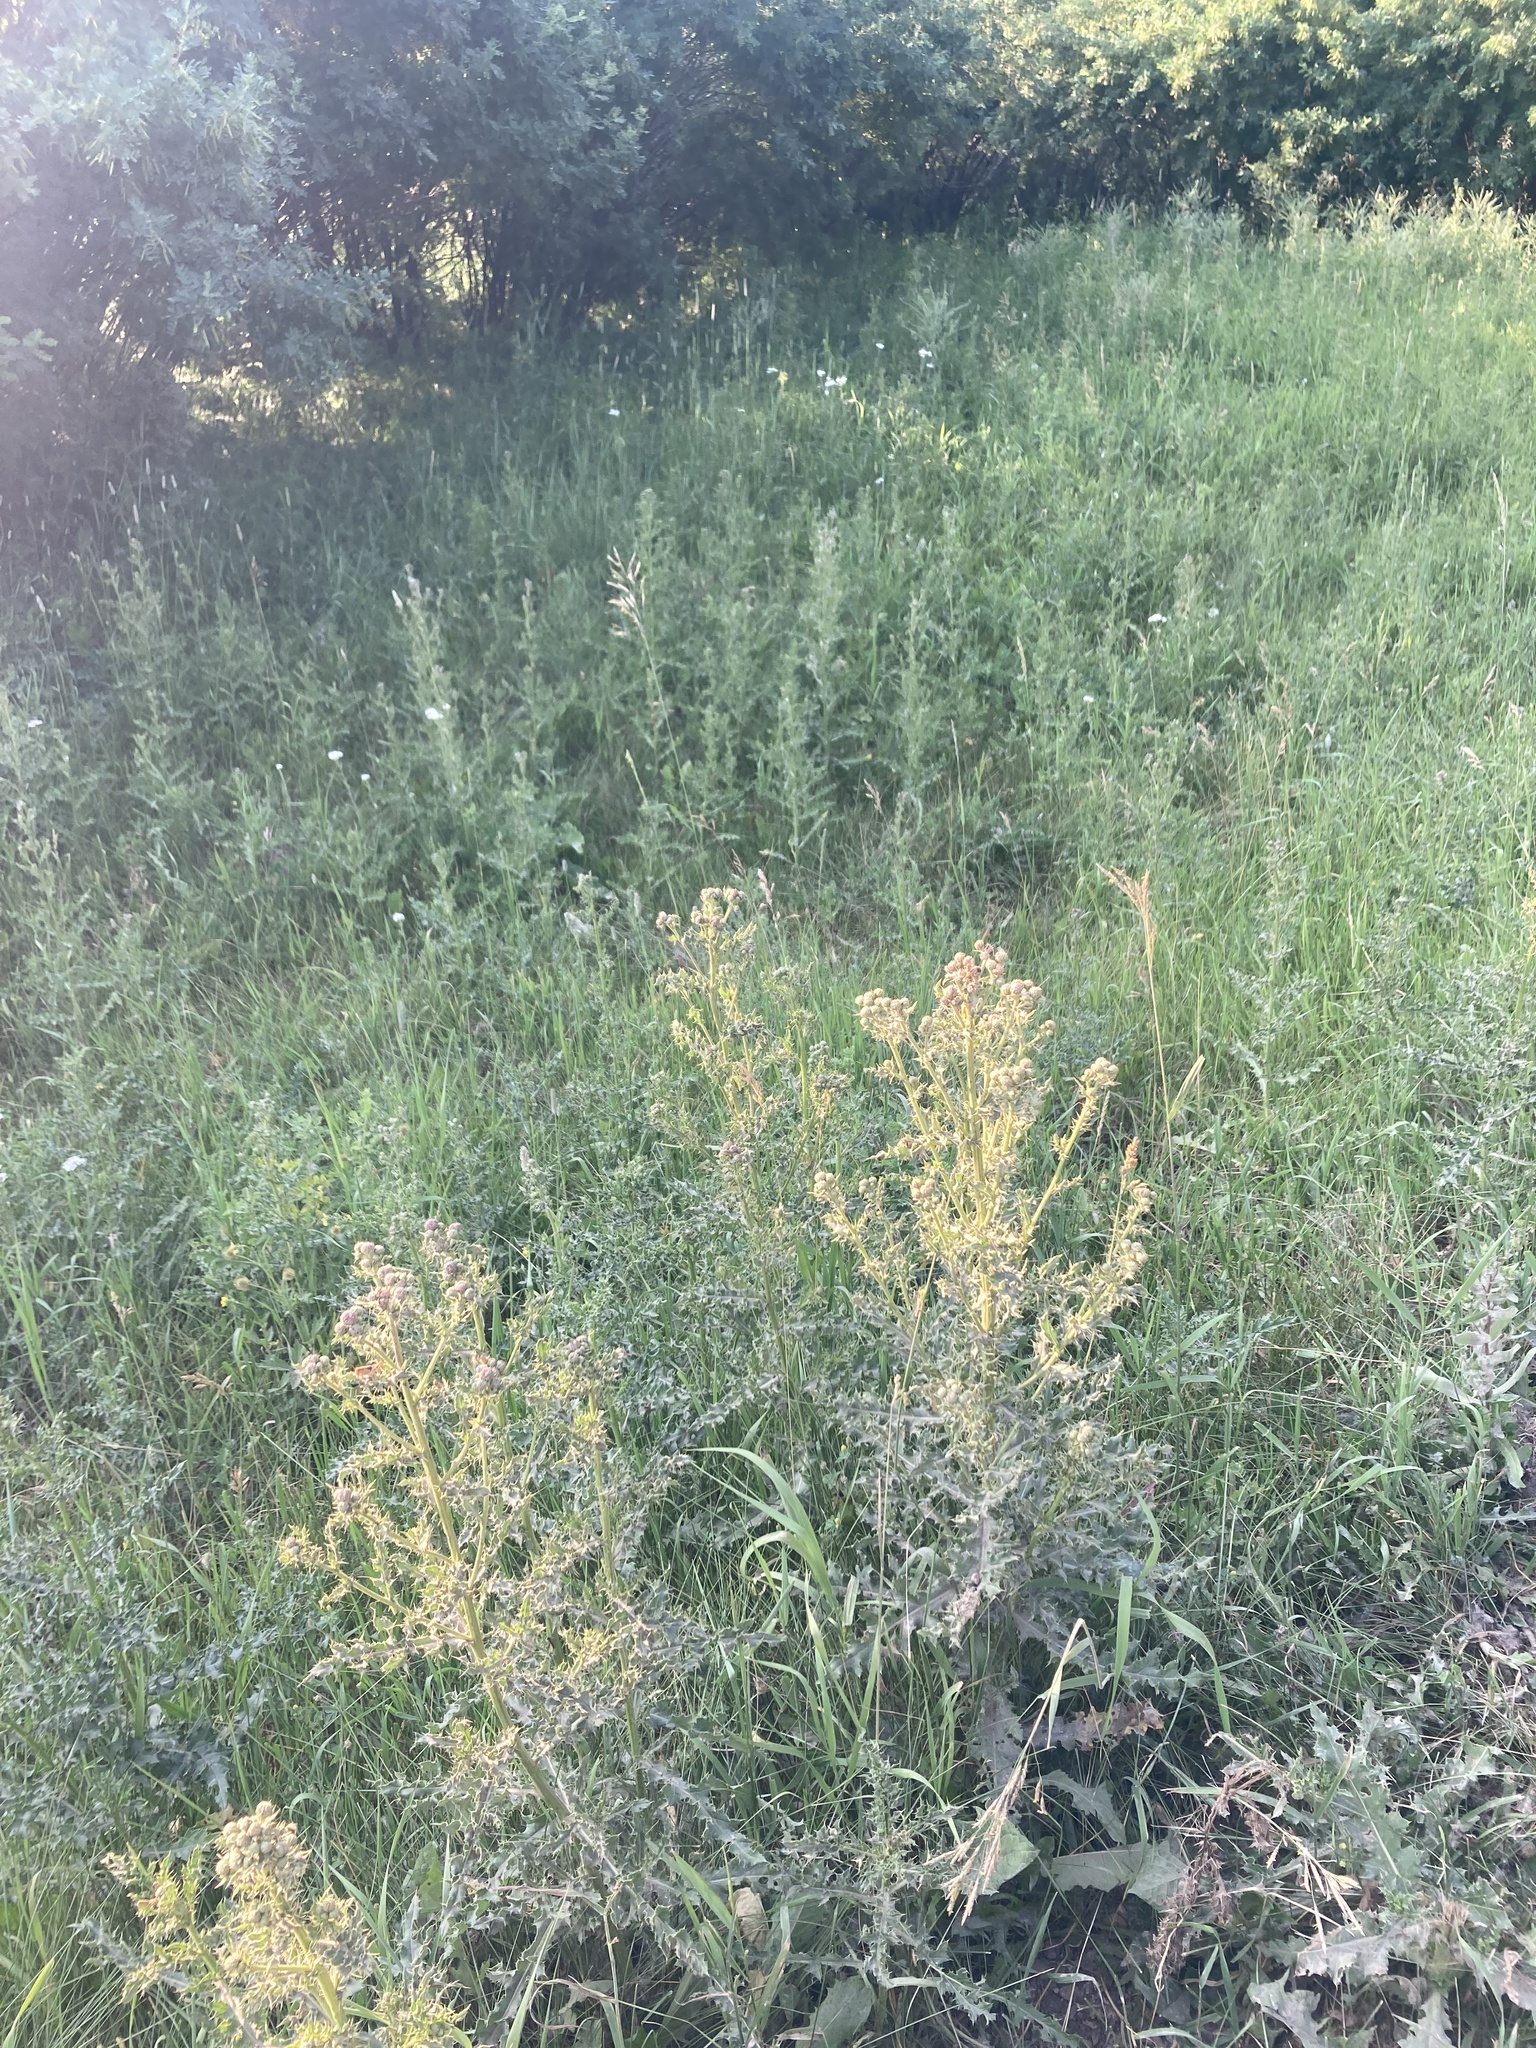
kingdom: Plantae
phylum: Tracheophyta
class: Magnoliopsida
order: Asterales
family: Asteraceae
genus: Cirsium
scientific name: Cirsium arvense
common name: Creeping thistle
